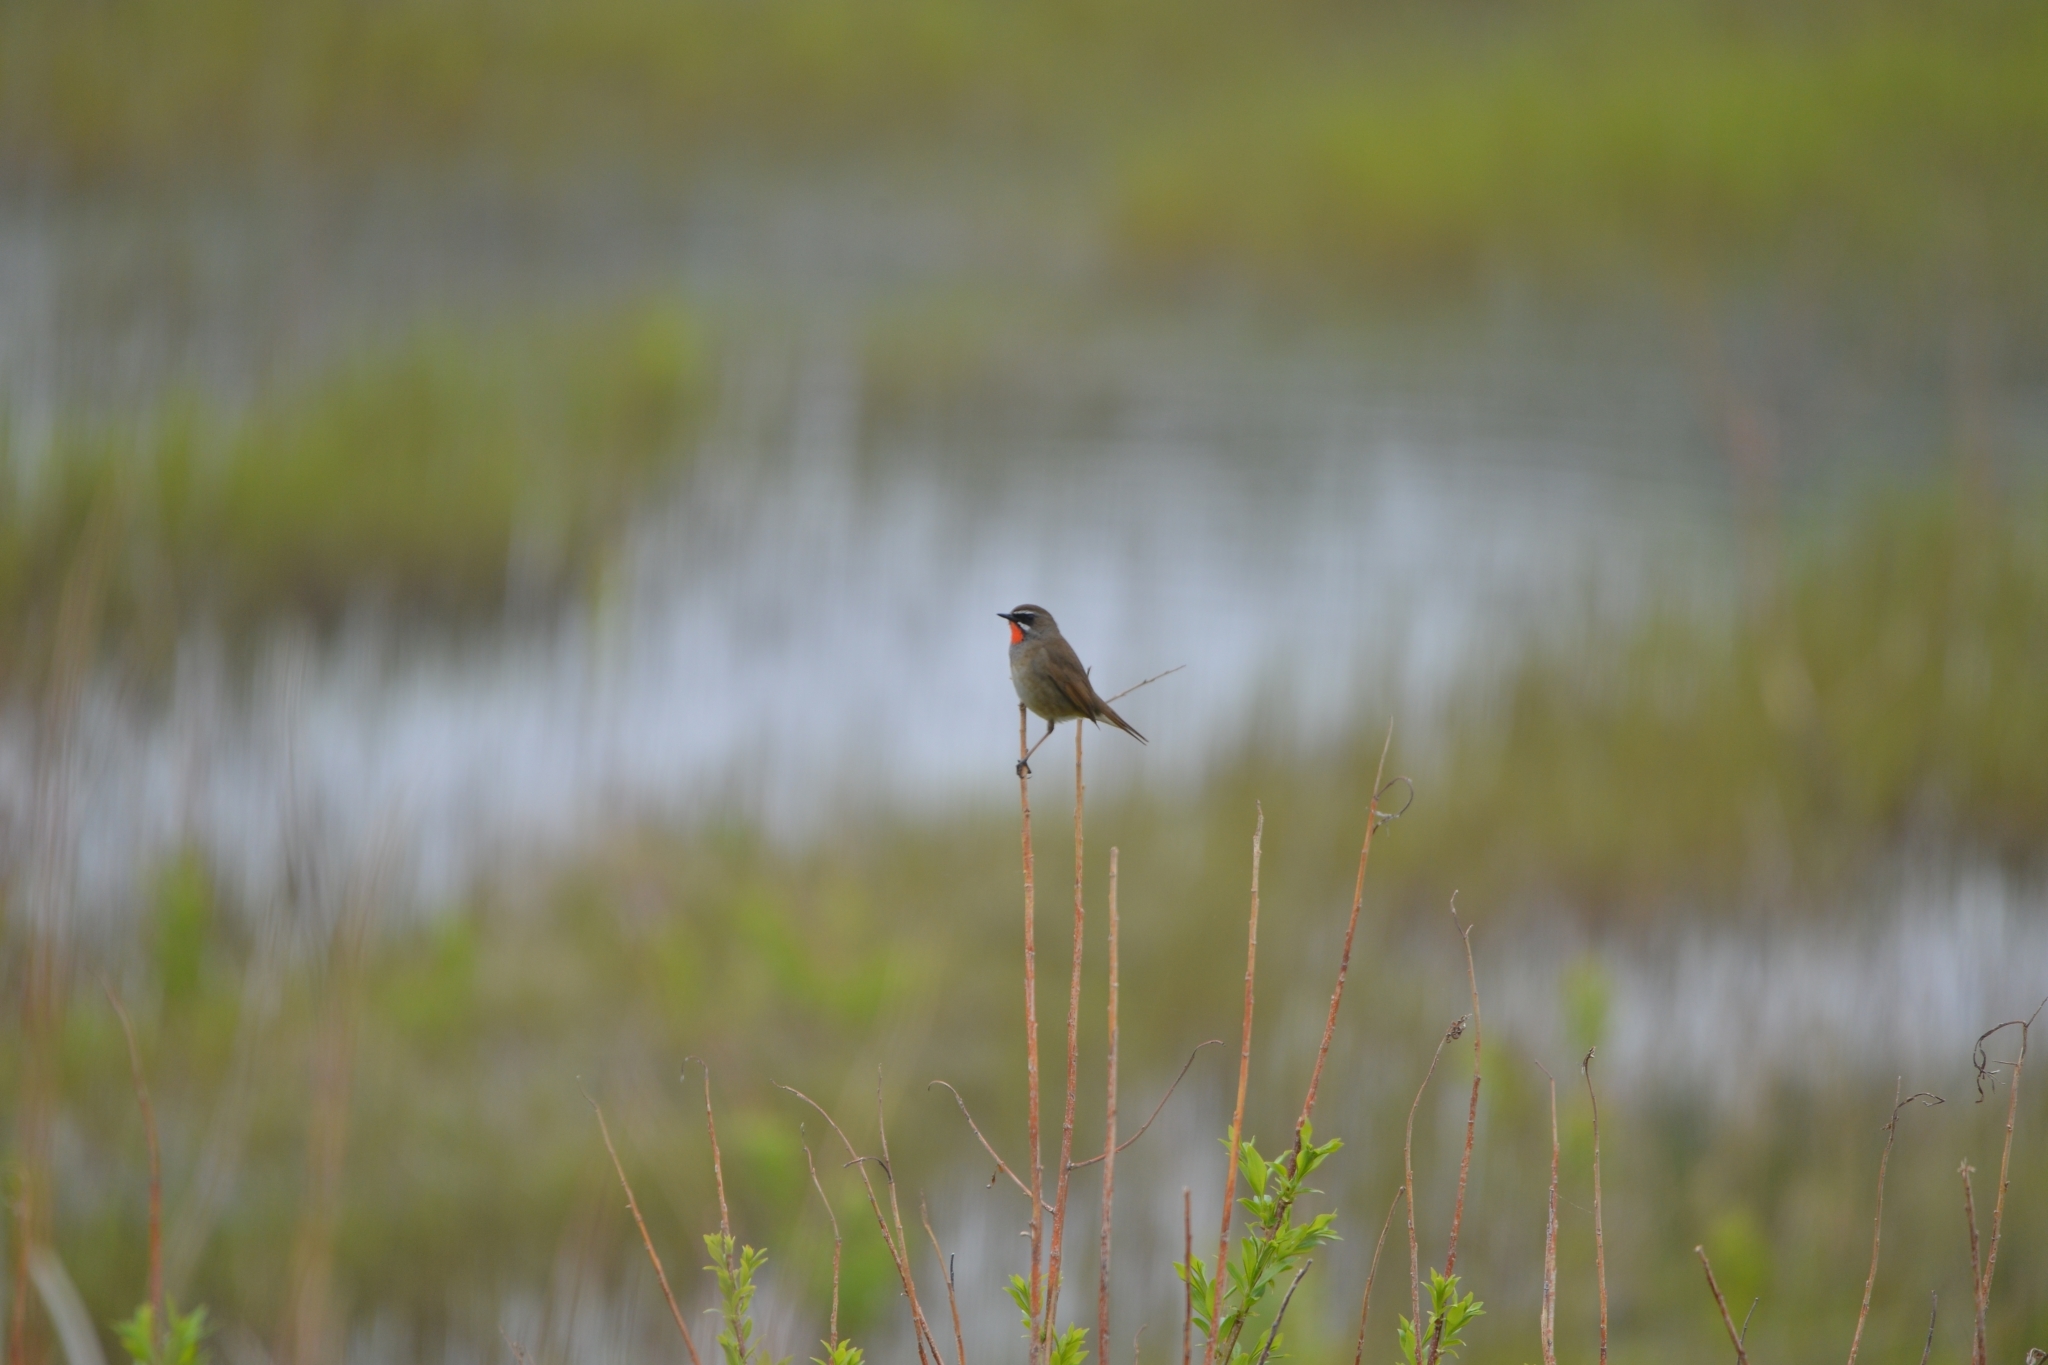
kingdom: Animalia
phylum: Chordata
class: Aves
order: Passeriformes
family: Muscicapidae
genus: Luscinia
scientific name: Luscinia calliope
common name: Siberian rubythroat
